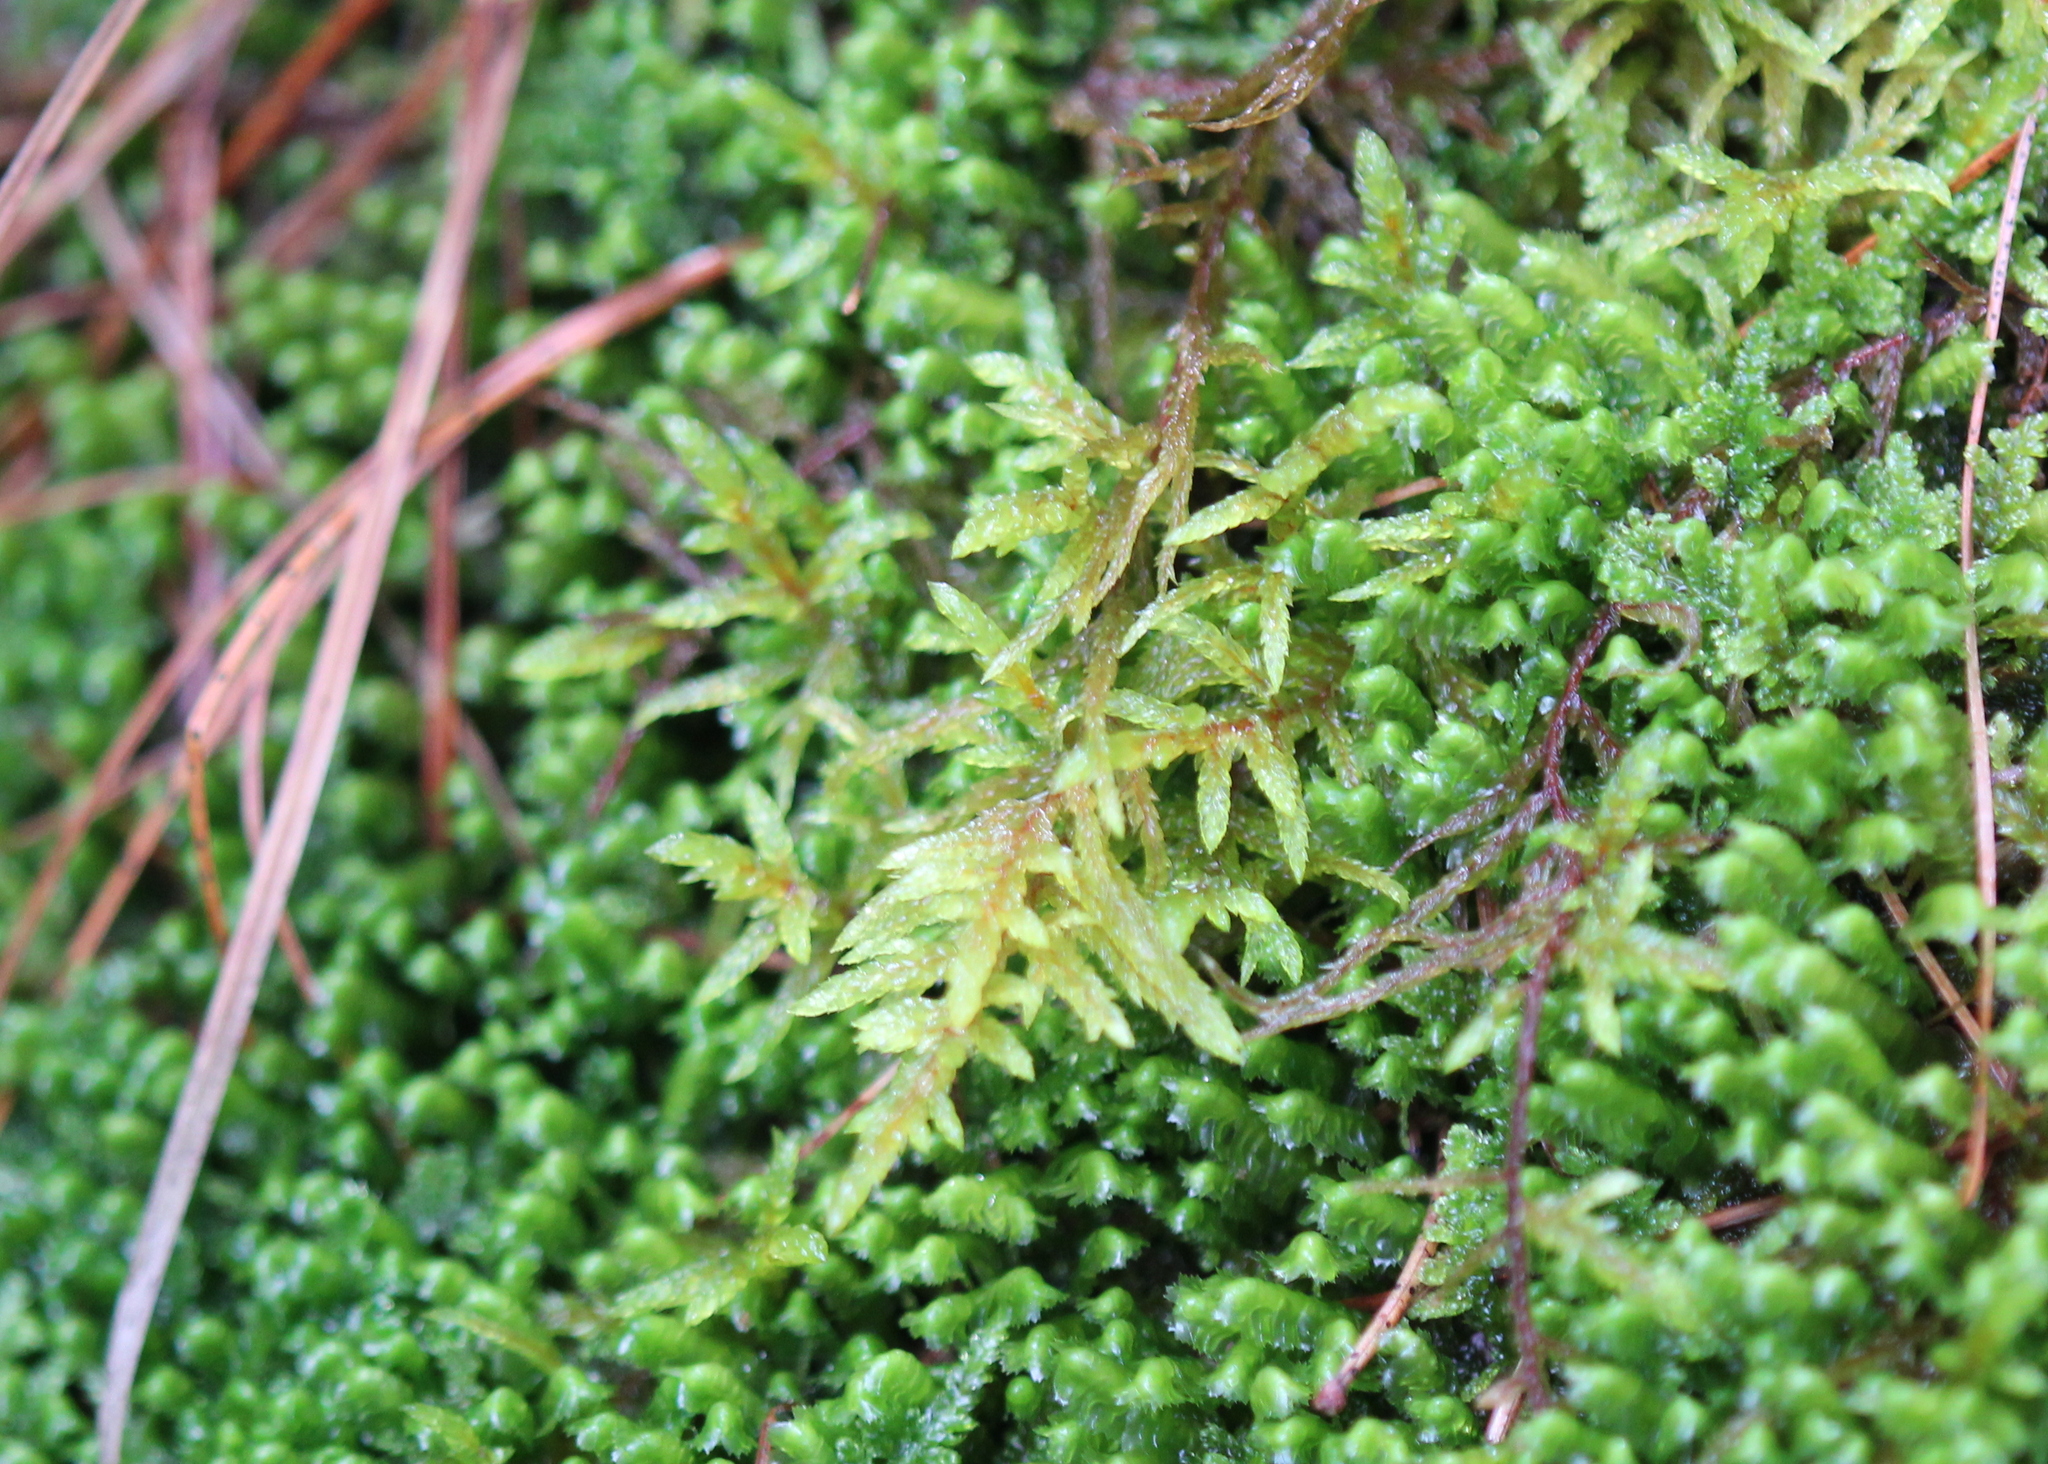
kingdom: Plantae
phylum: Bryophyta
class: Bryopsida
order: Hypnales
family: Hylocomiaceae
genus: Pleurozium
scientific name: Pleurozium schreberi
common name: Red-stemmed feather moss
